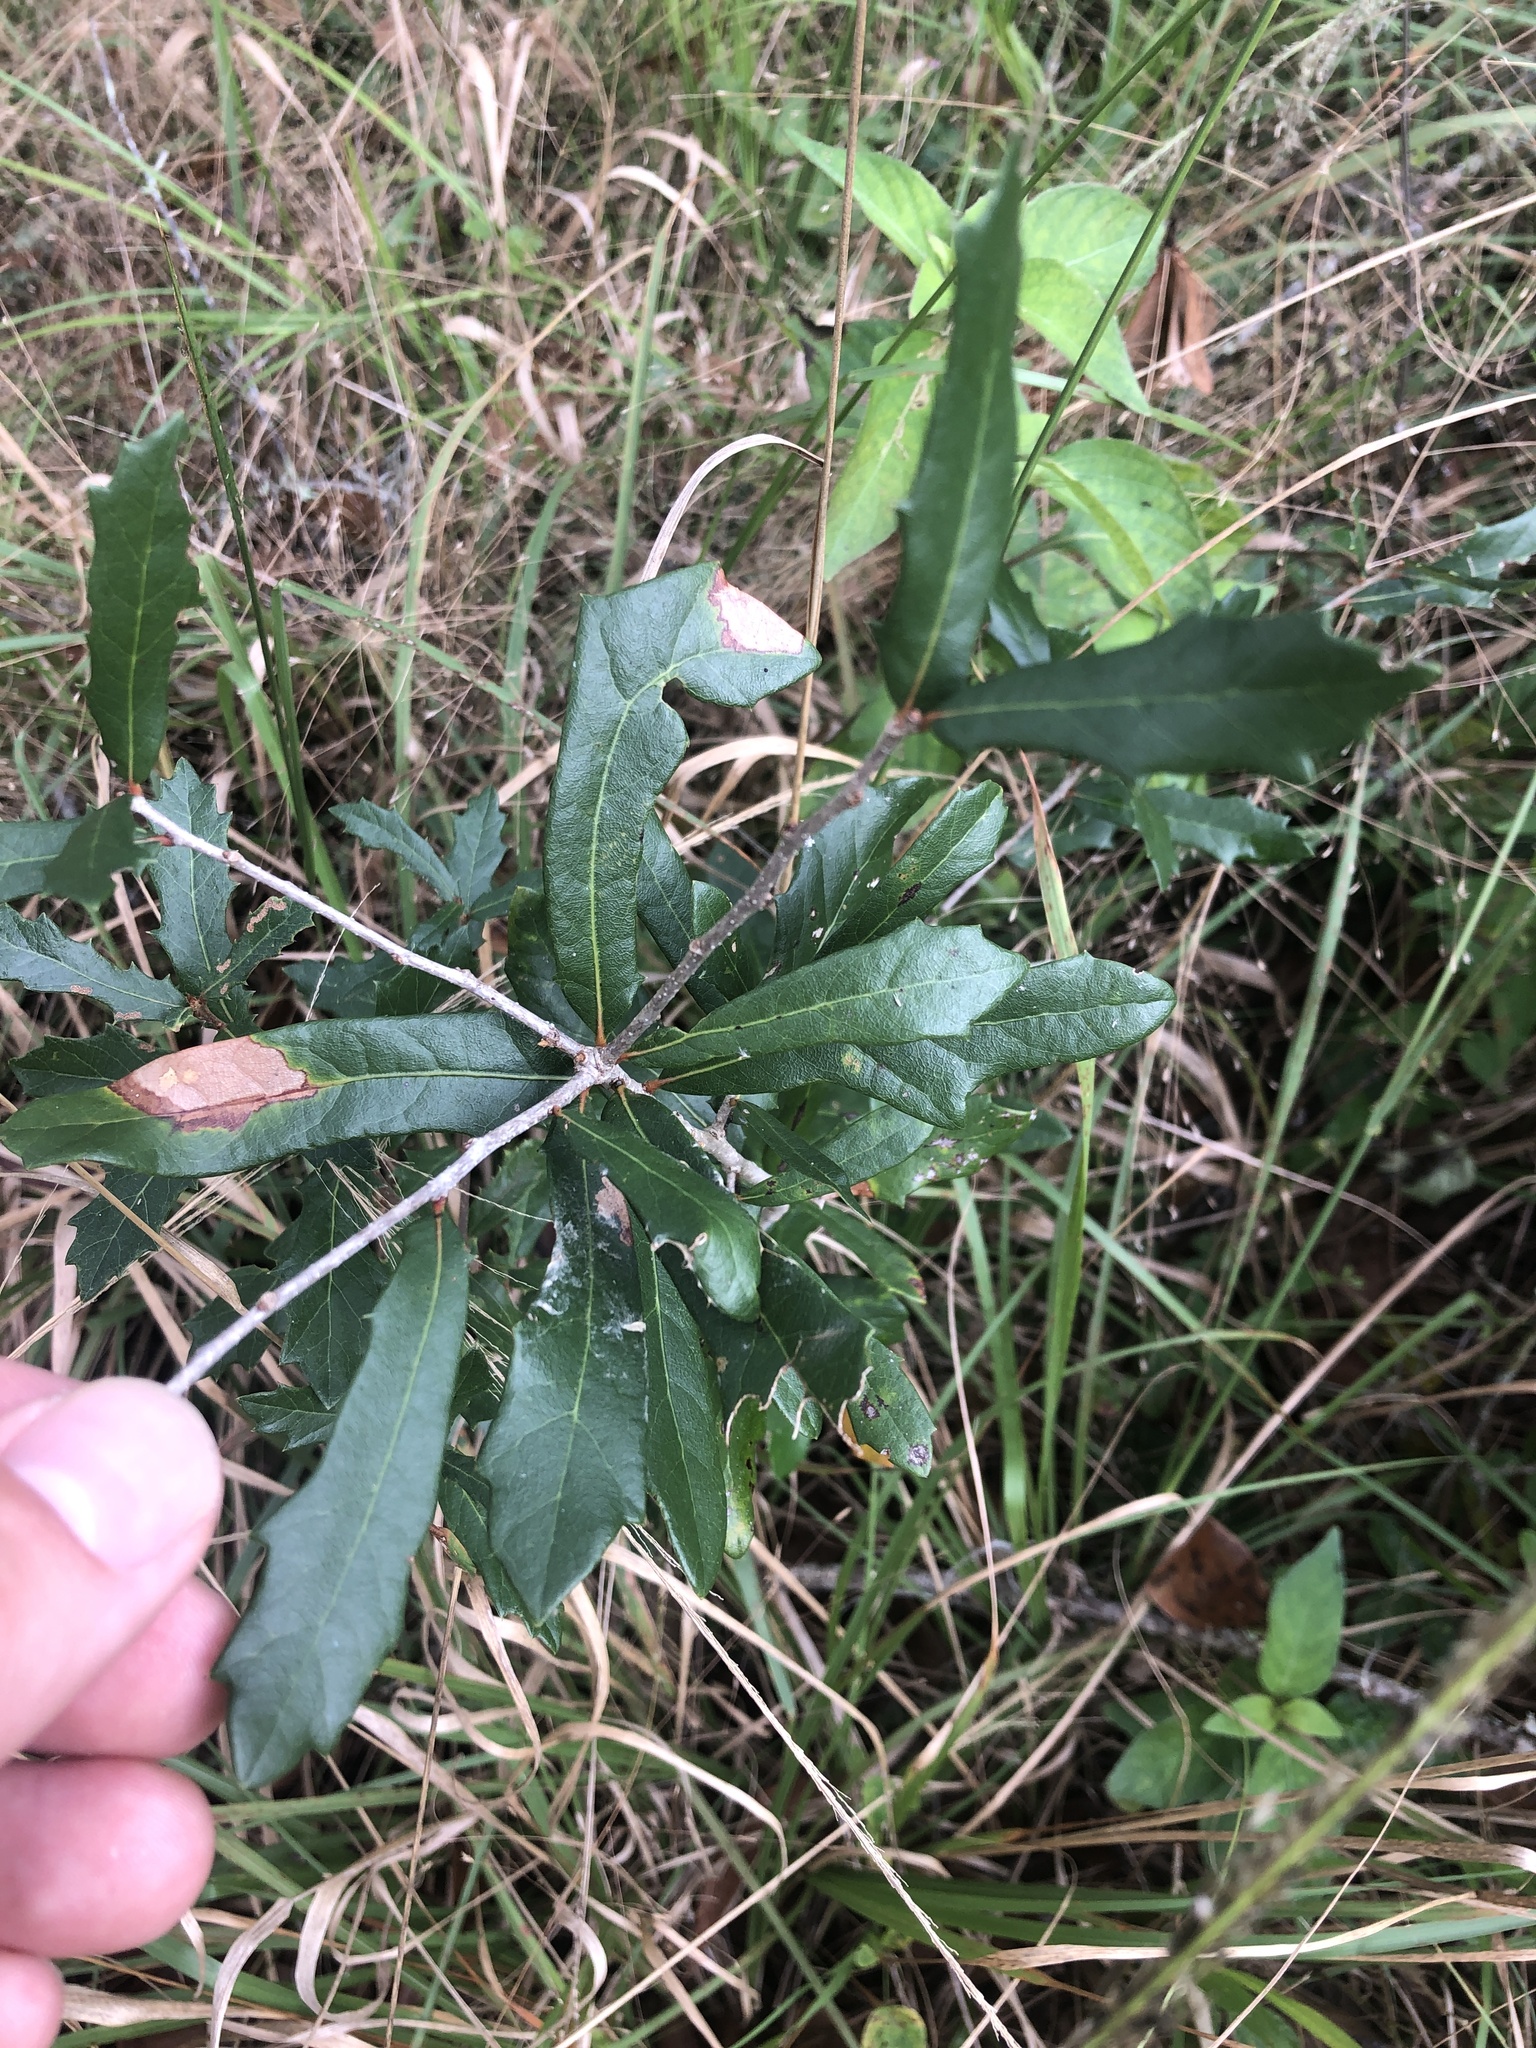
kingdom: Plantae
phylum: Tracheophyta
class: Magnoliopsida
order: Fagales
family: Fagaceae
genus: Quercus
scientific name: Quercus virginiana
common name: Southern live oak
